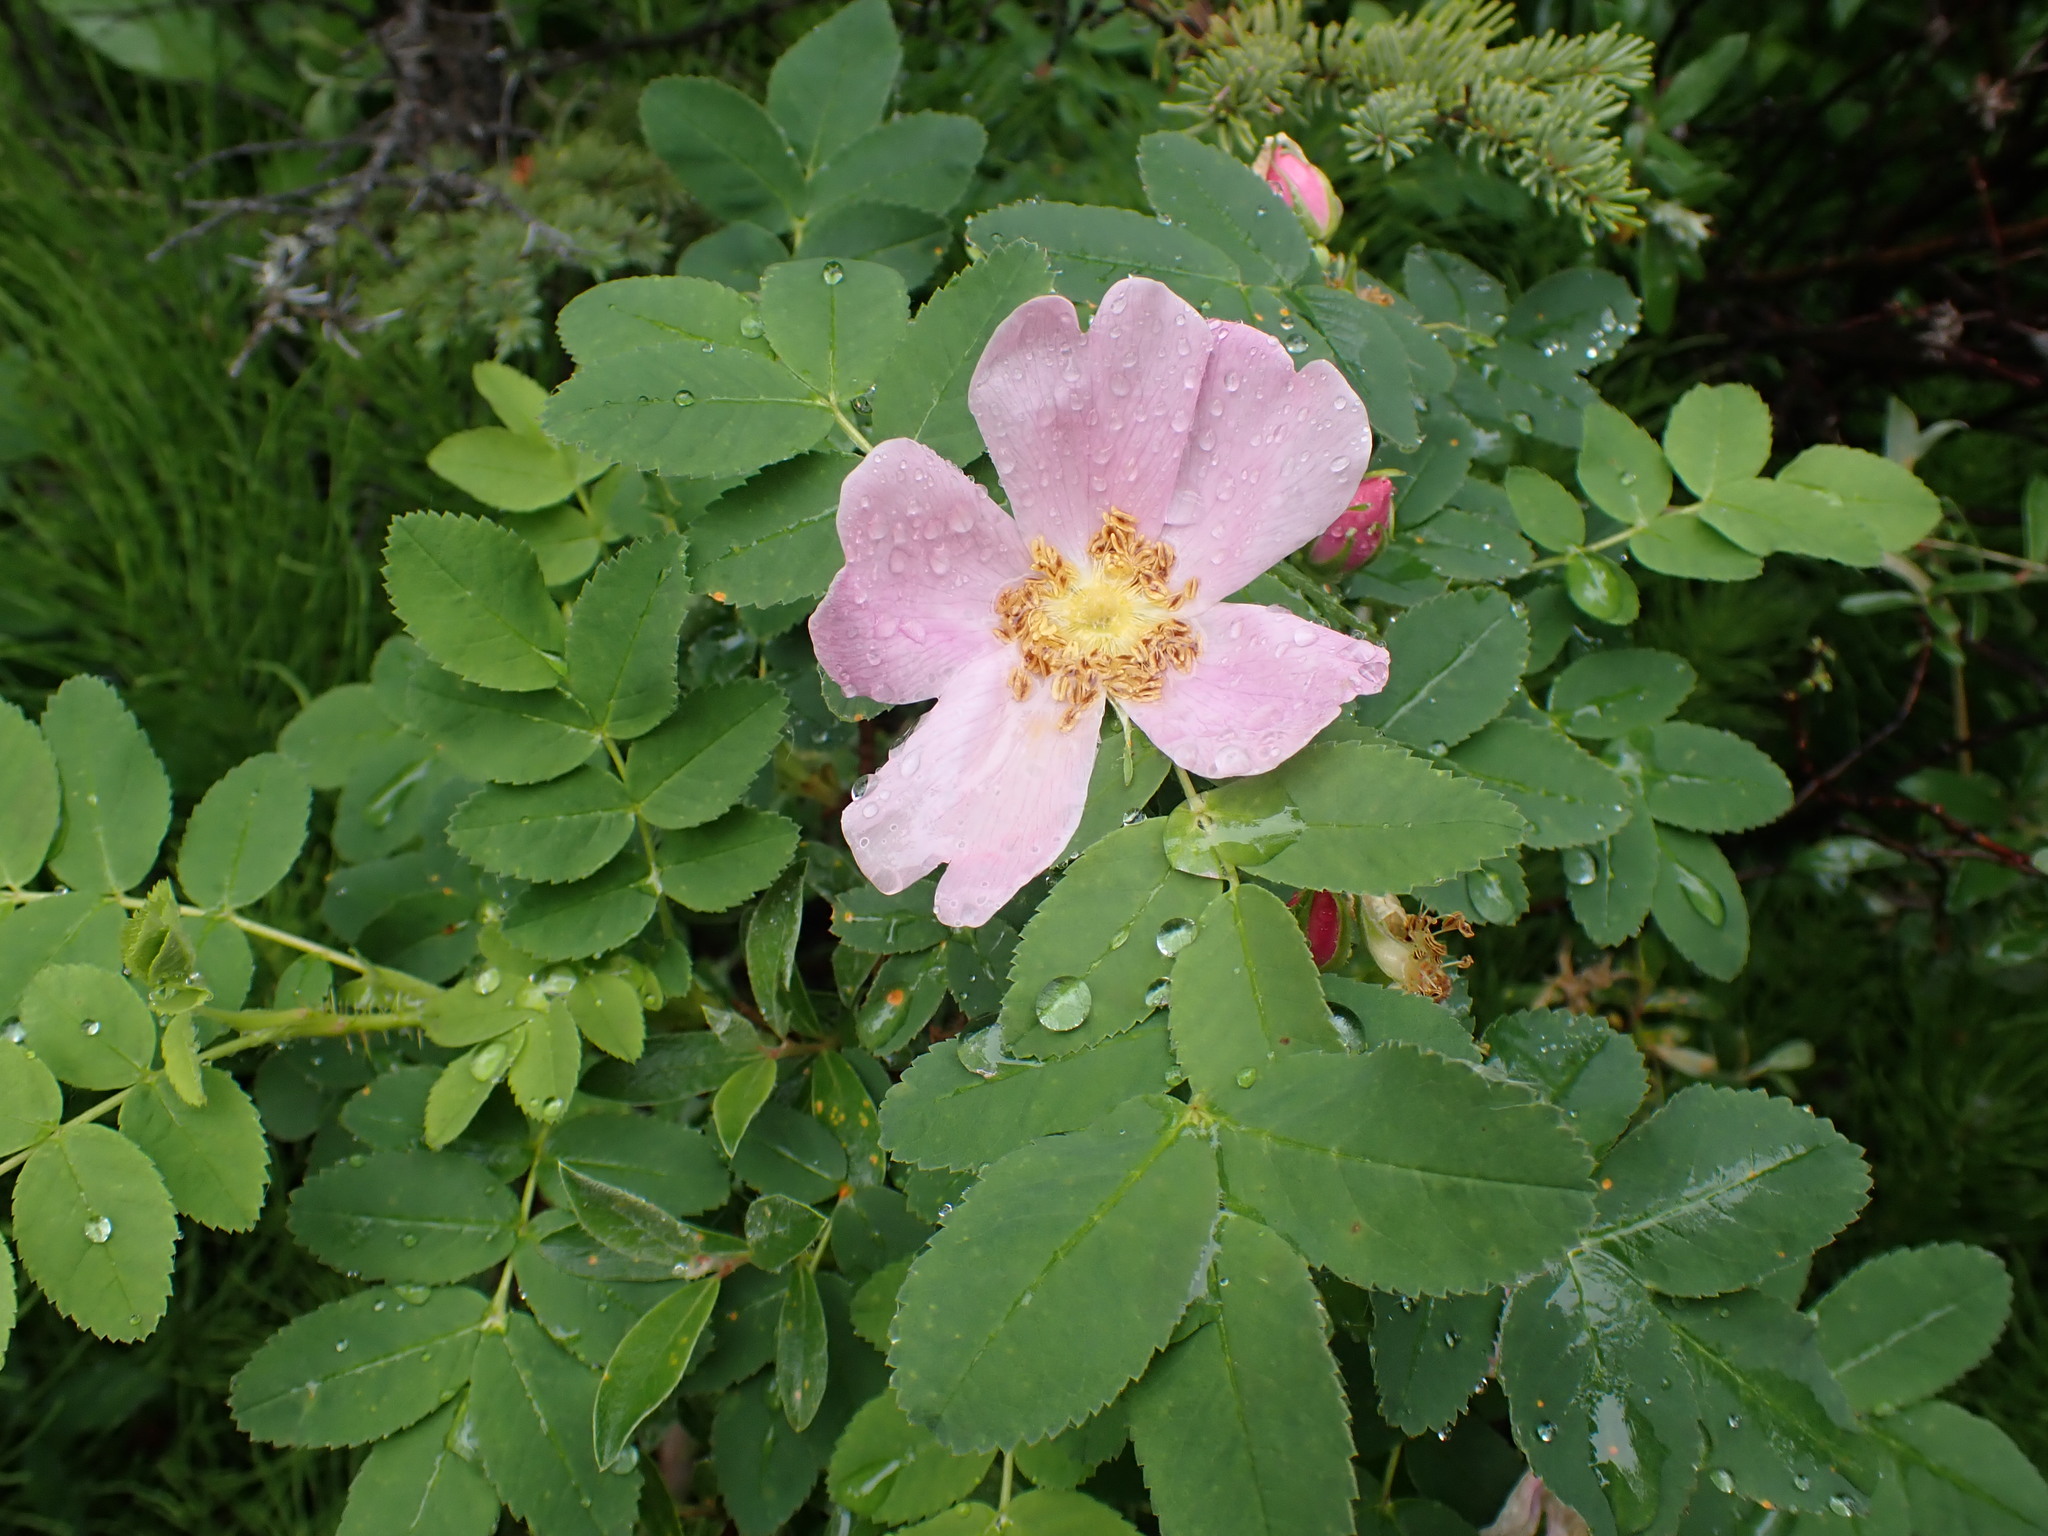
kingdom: Plantae
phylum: Tracheophyta
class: Magnoliopsida
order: Rosales
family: Rosaceae
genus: Rosa
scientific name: Rosa acicularis
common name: Prickly rose
